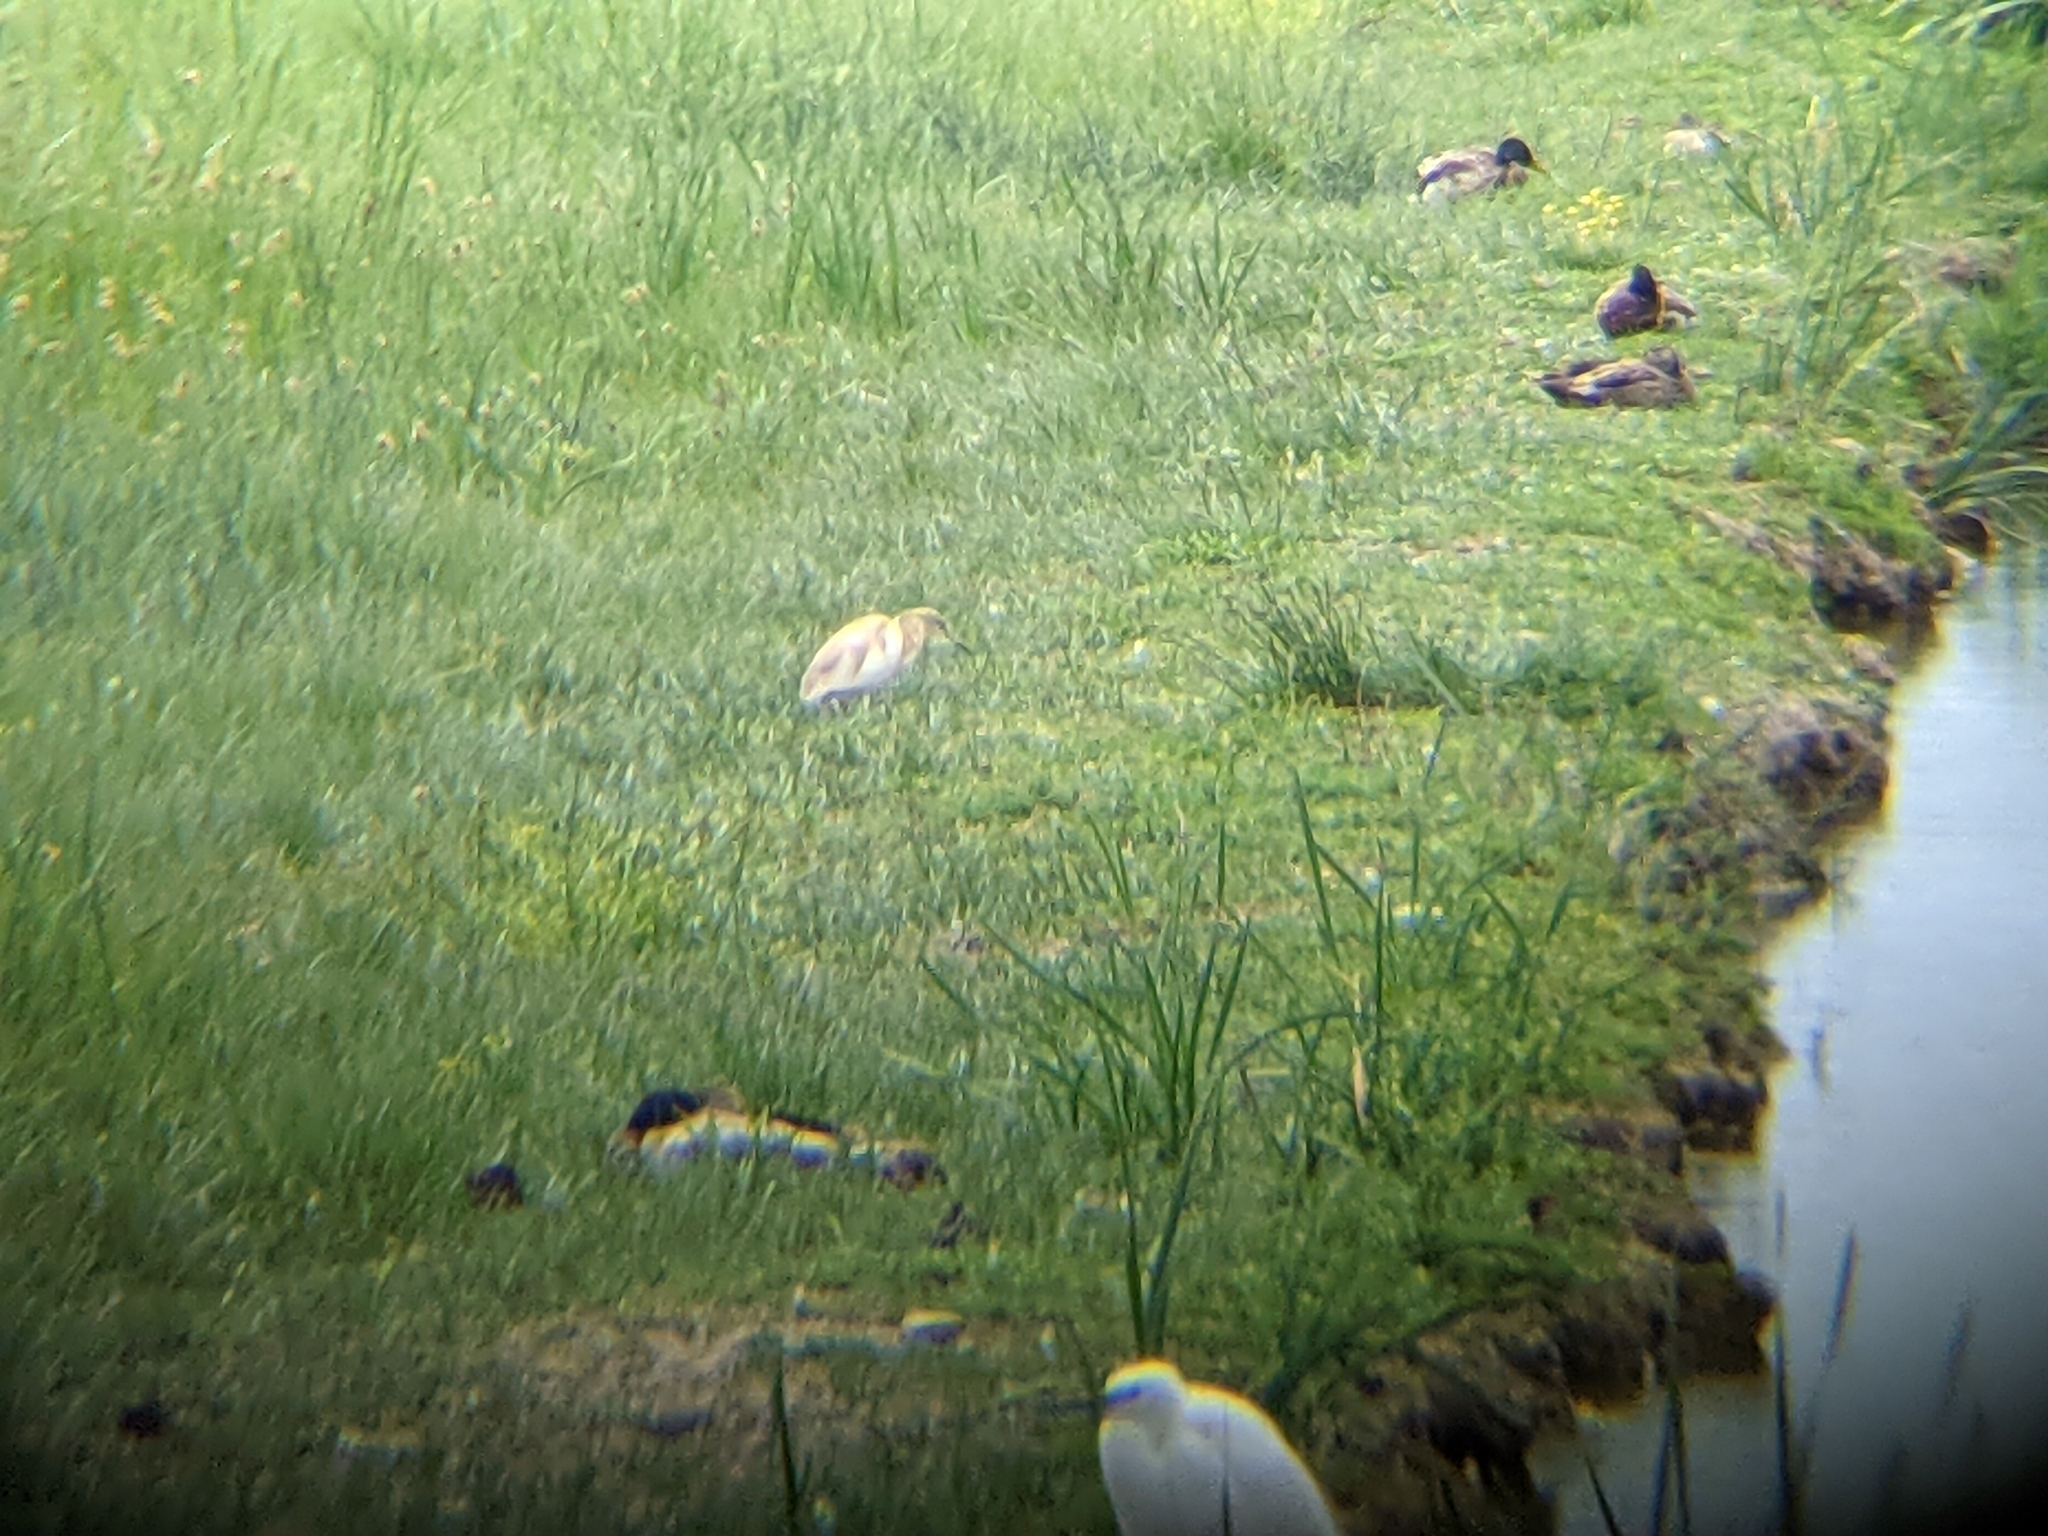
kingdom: Animalia
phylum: Chordata
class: Aves
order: Pelecaniformes
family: Ardeidae
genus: Ardeola
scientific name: Ardeola ralloides
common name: Squacco heron
